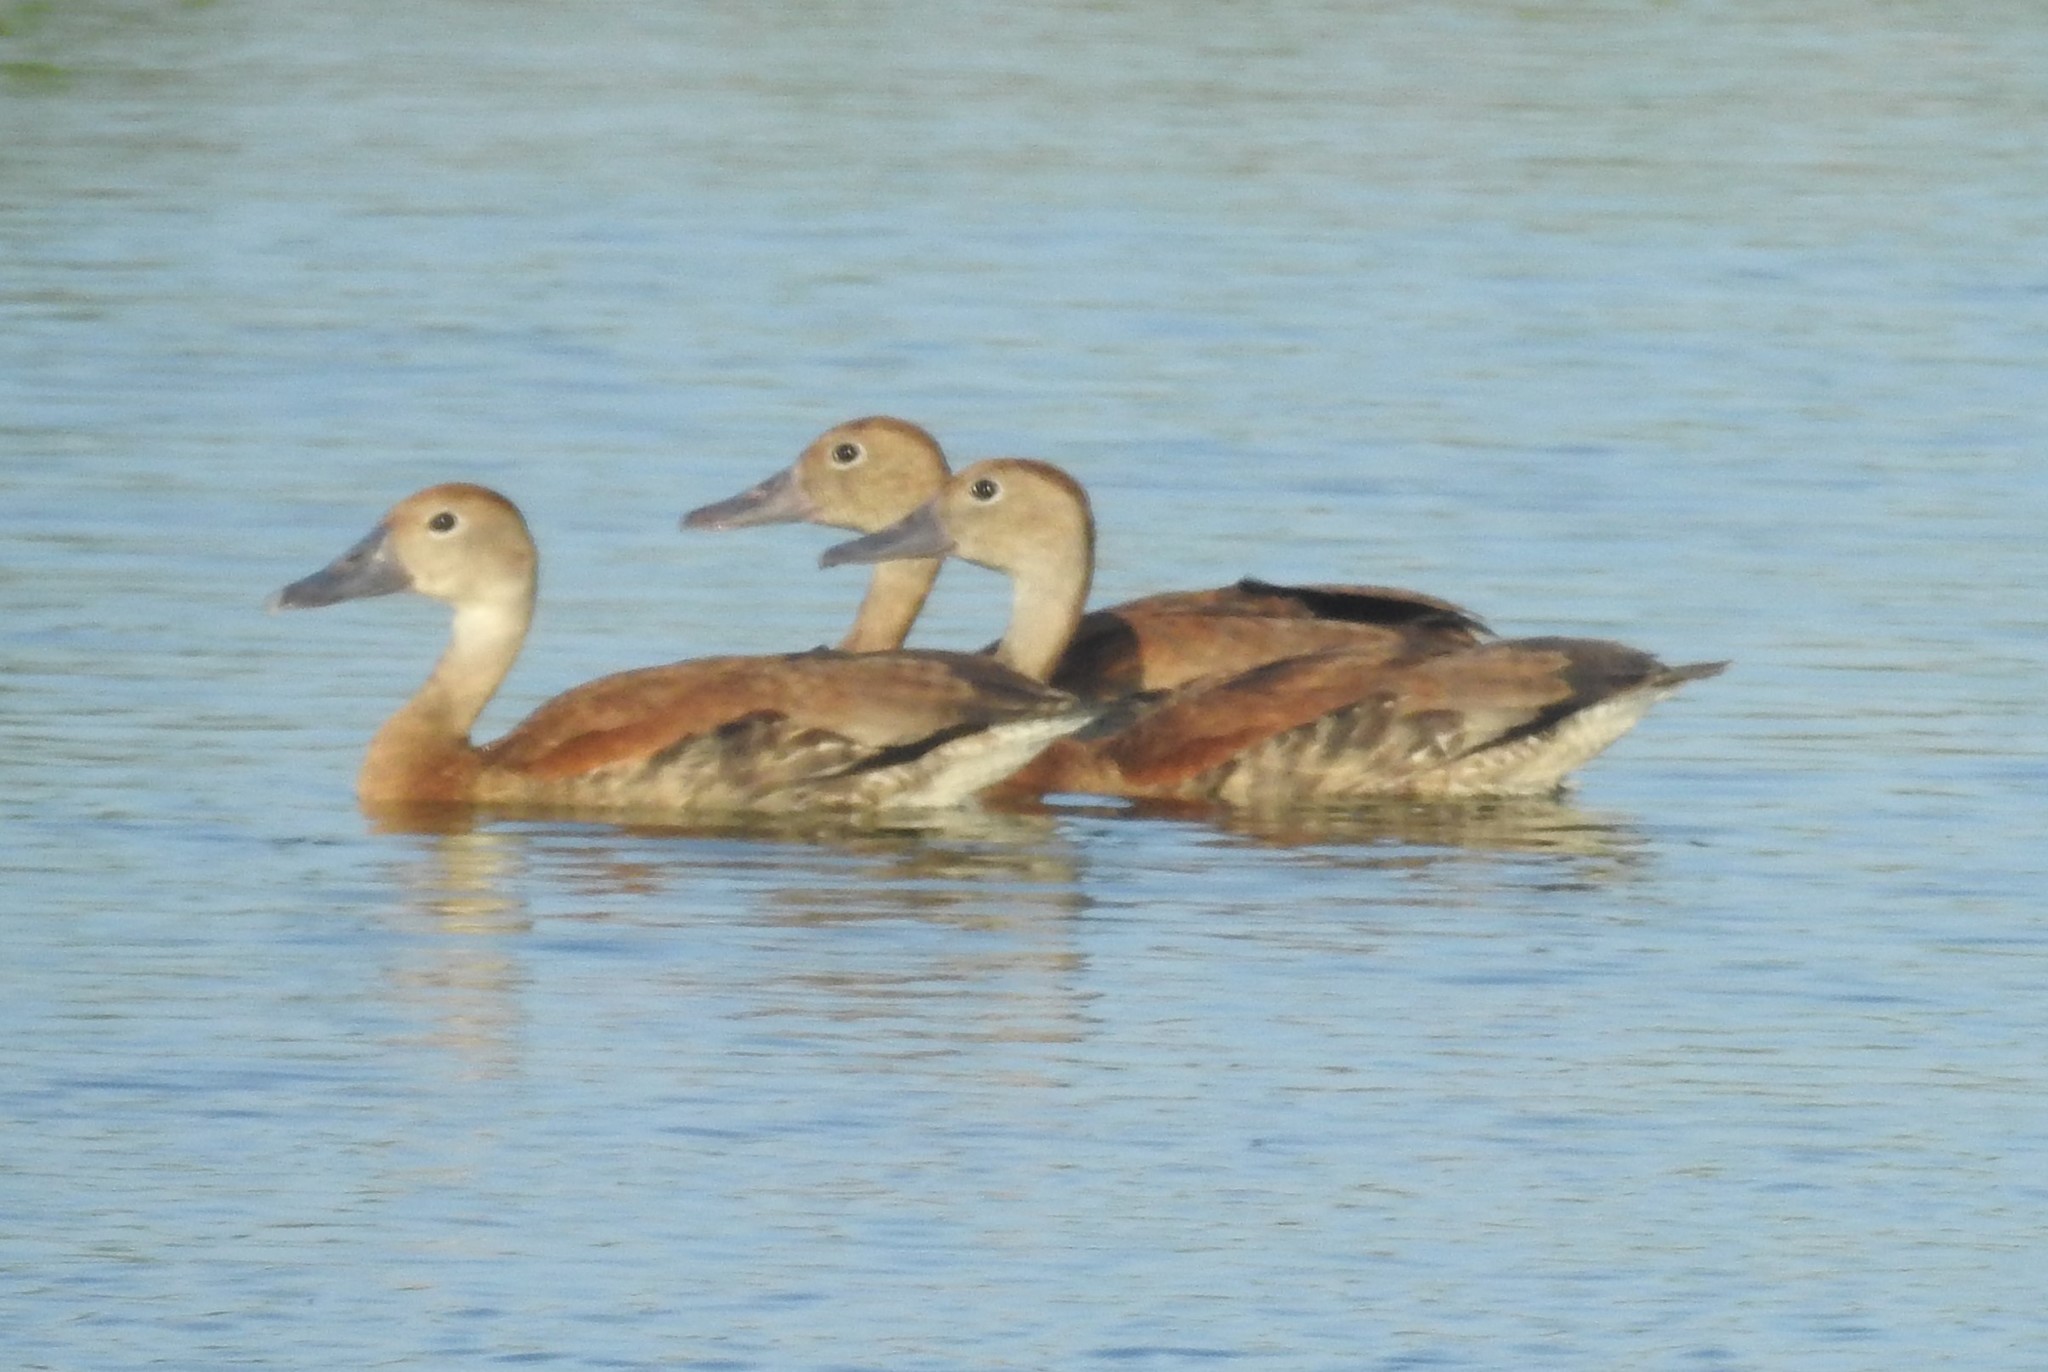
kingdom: Animalia
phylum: Chordata
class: Aves
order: Anseriformes
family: Anatidae
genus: Dendrocygna
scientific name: Dendrocygna autumnalis
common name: Black-bellied whistling duck
